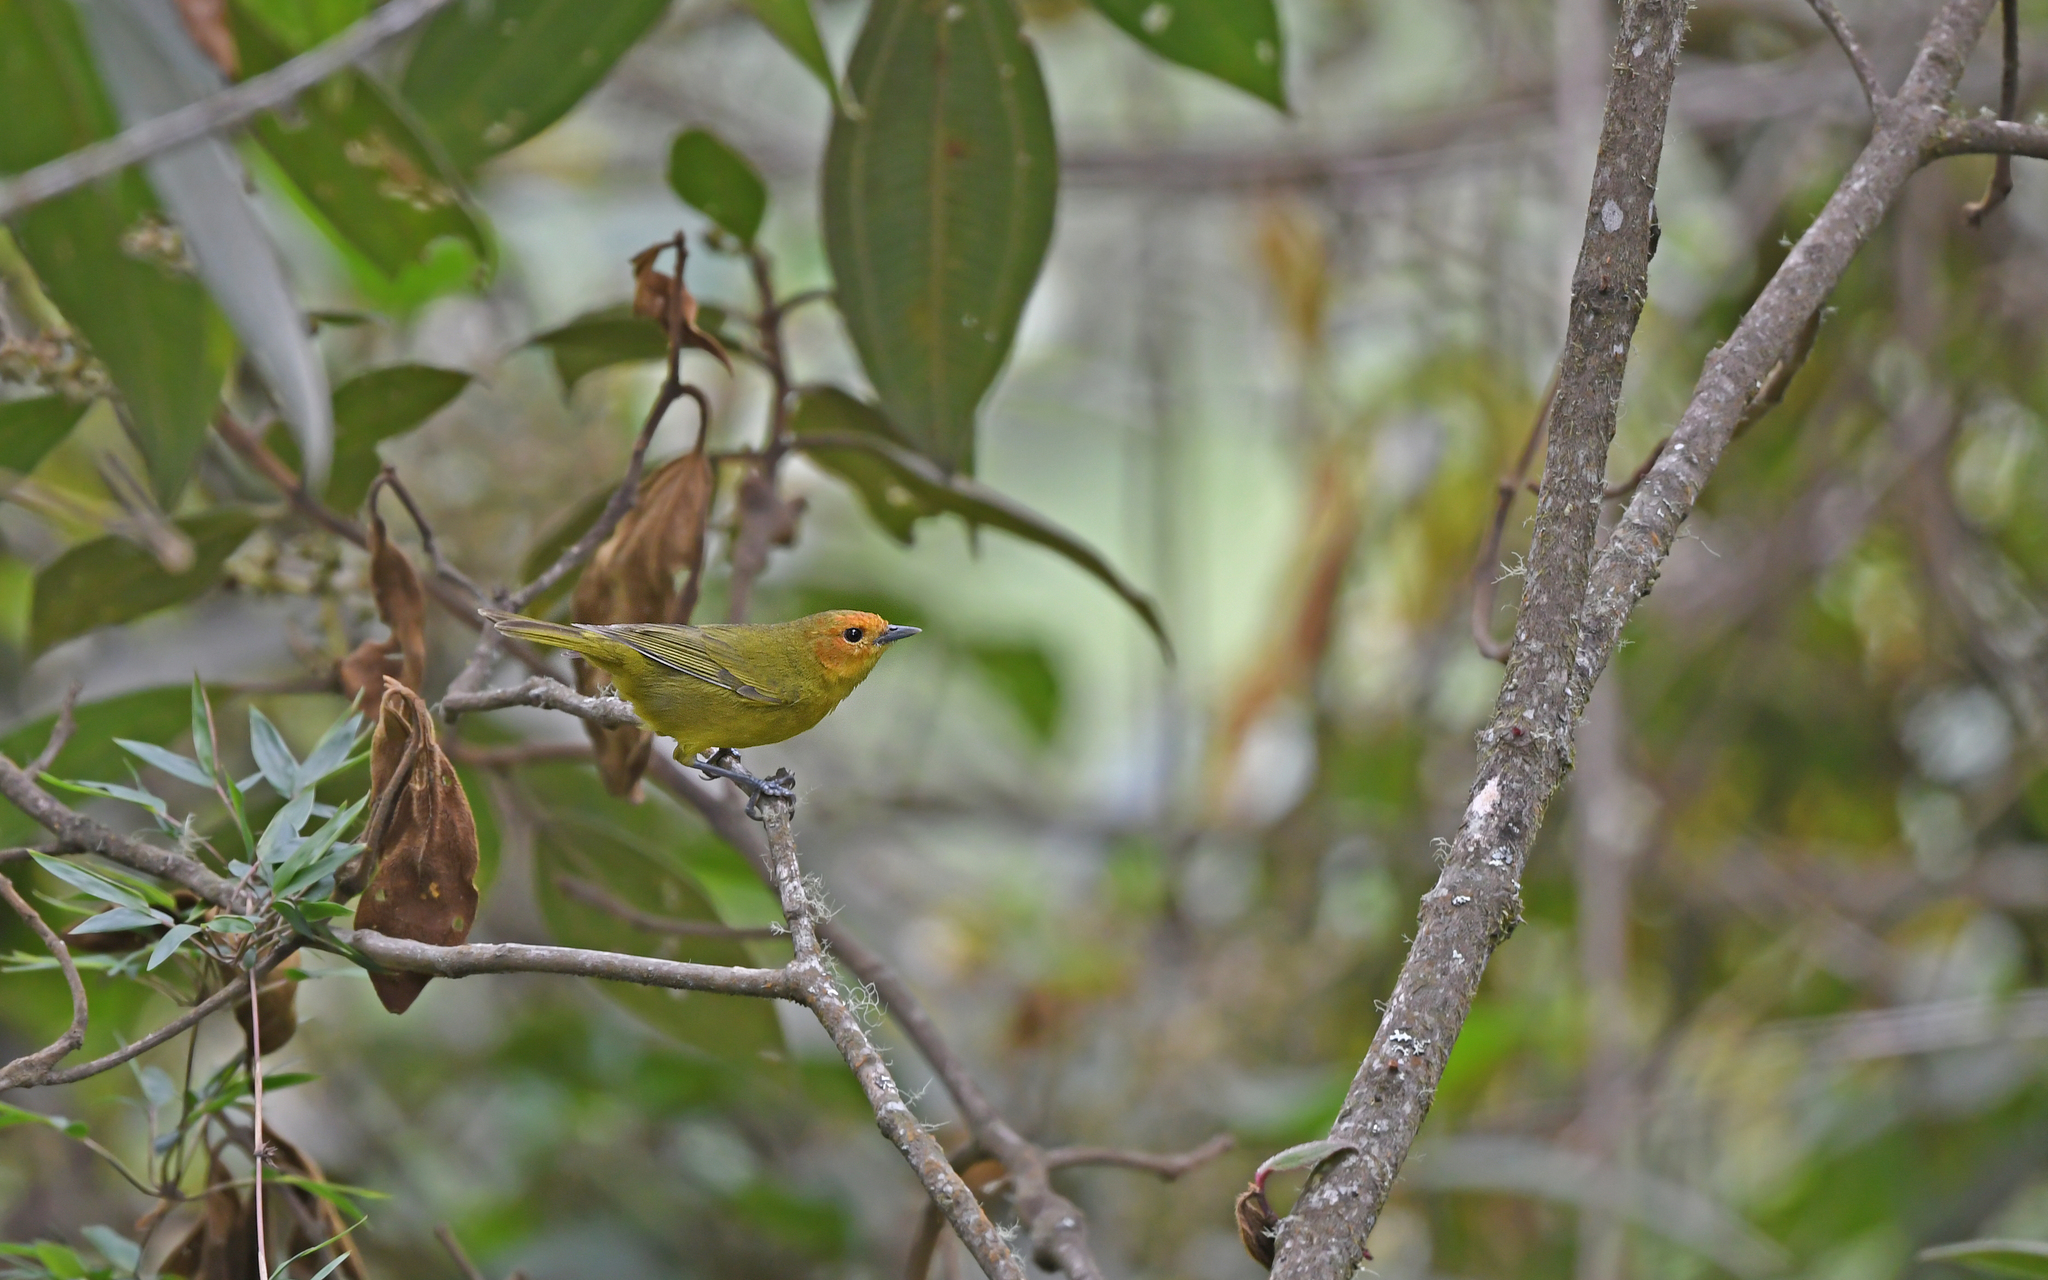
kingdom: Animalia
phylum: Chordata
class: Aves
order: Passeriformes
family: Thraupidae
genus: Thlypopsis
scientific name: Thlypopsis ruficeps
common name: Rust-and-yellow tanager
